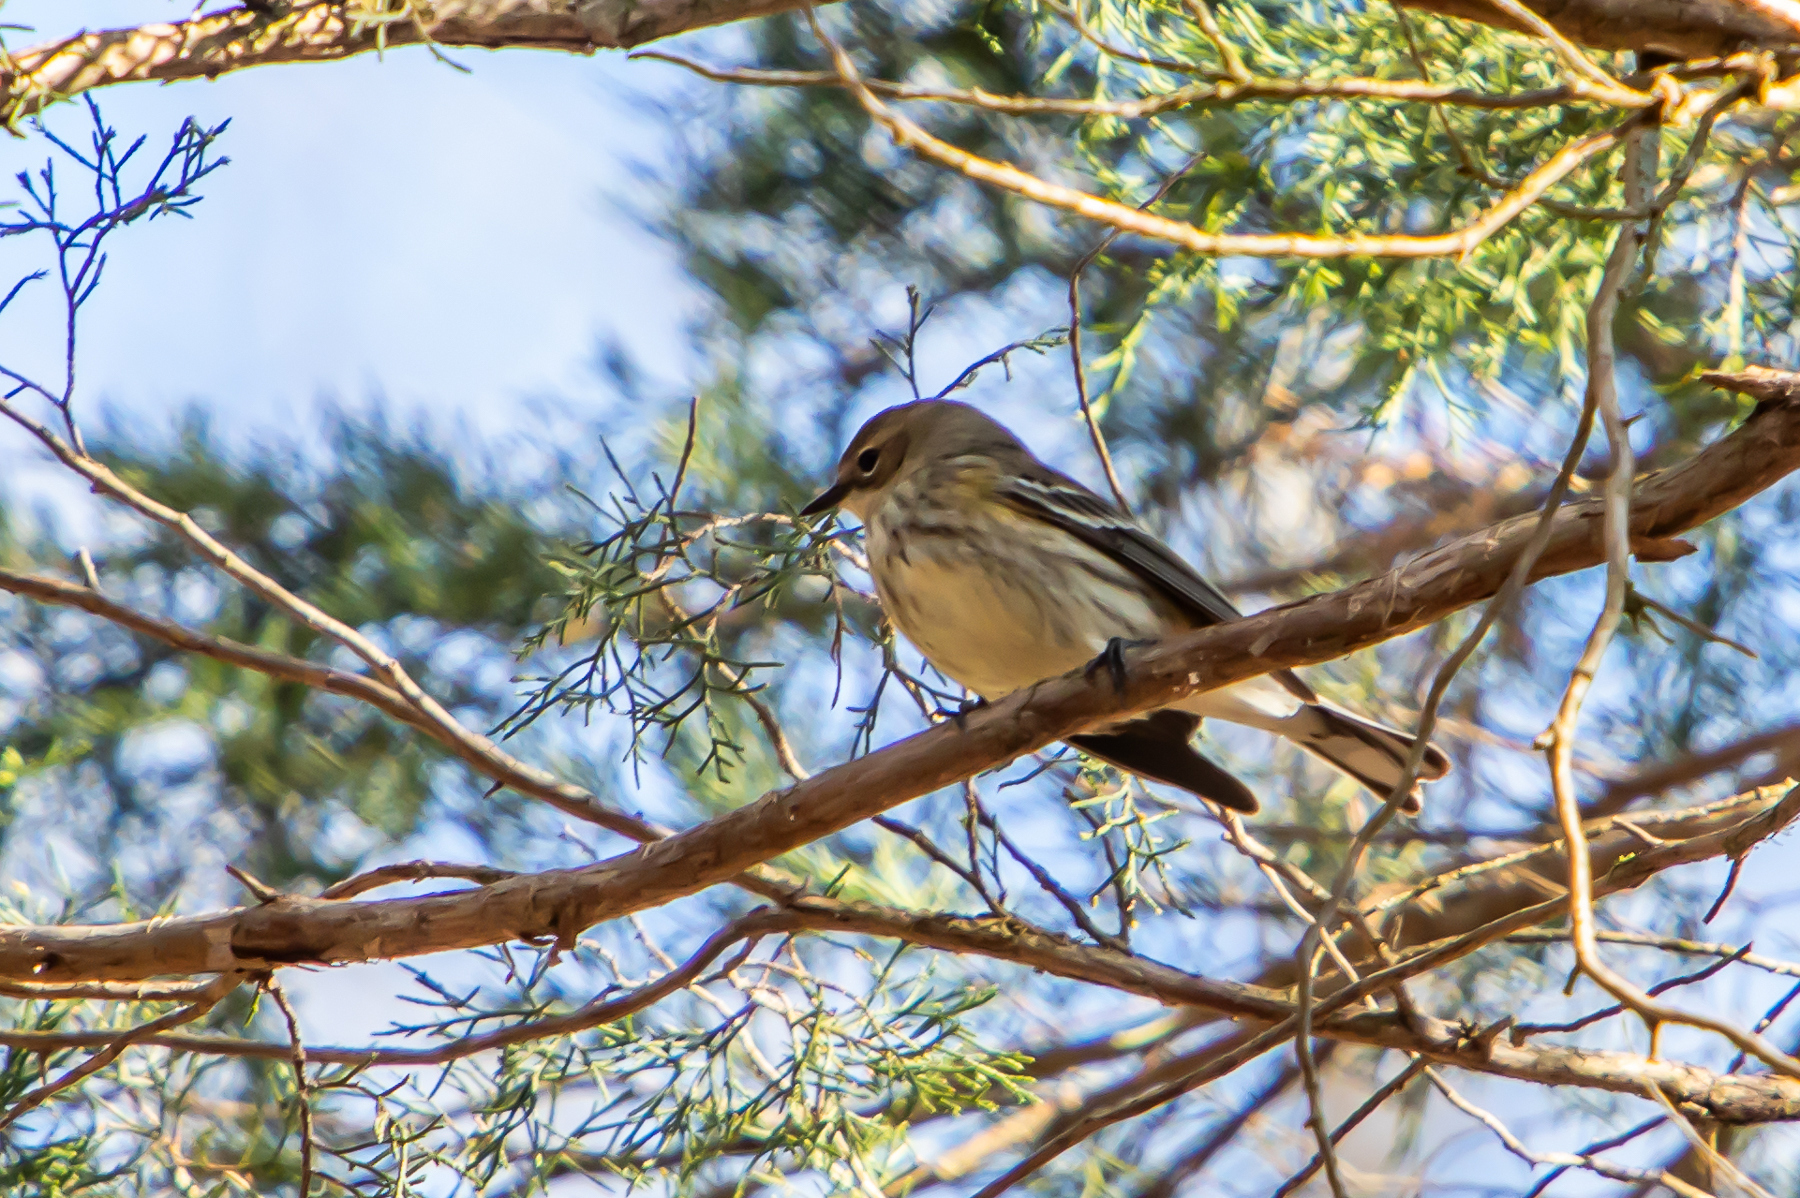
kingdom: Animalia
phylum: Chordata
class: Aves
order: Passeriformes
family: Parulidae
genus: Setophaga
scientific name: Setophaga coronata
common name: Myrtle warbler
